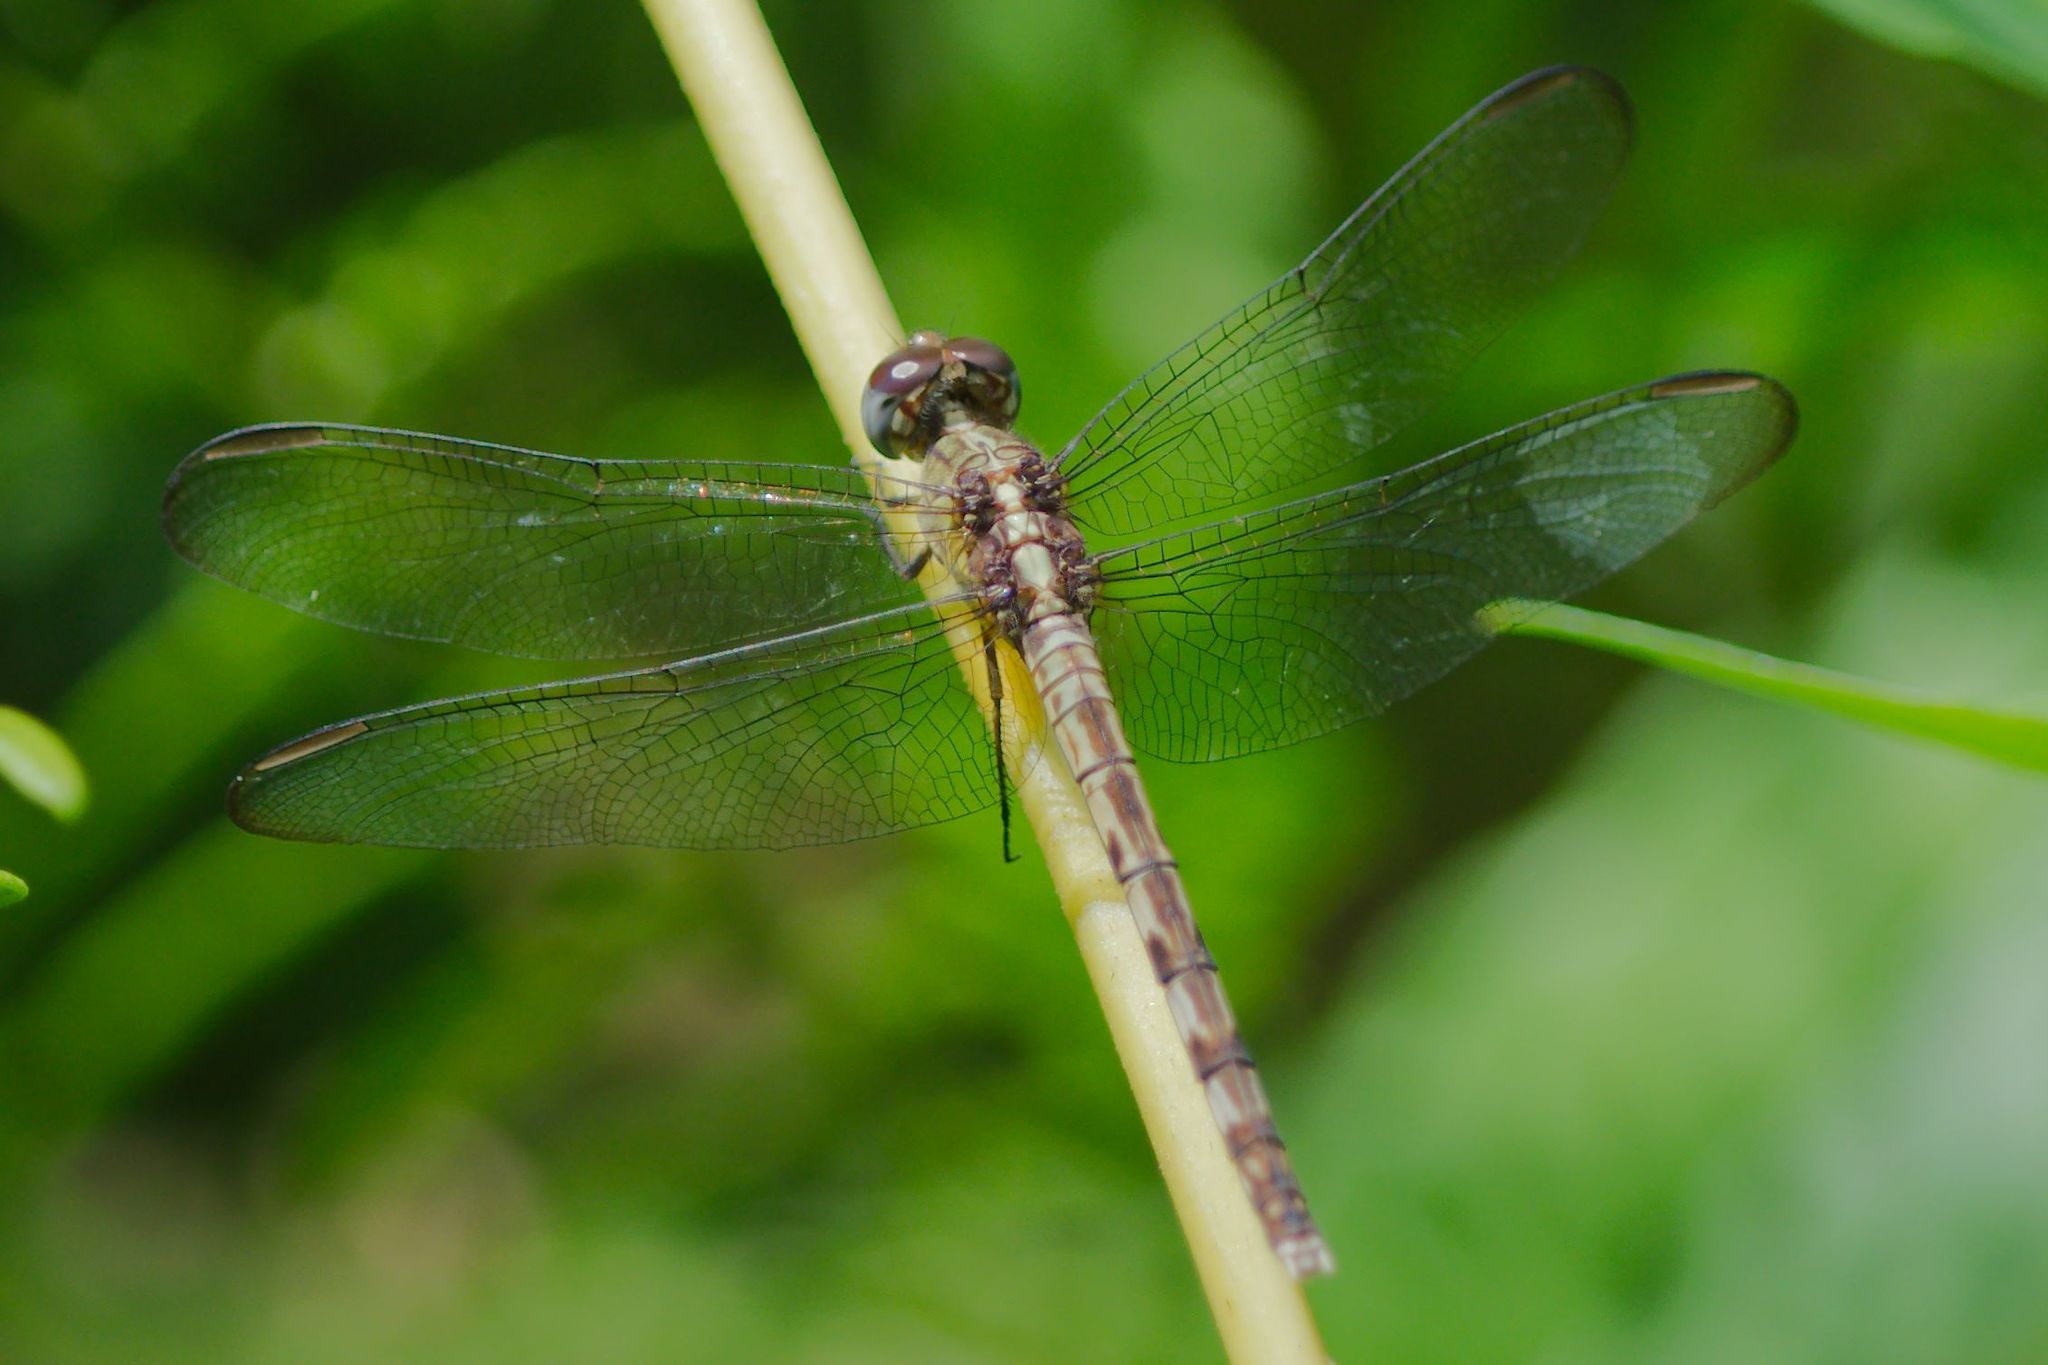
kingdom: Animalia
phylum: Arthropoda
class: Insecta
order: Odonata
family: Libellulidae
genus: Erythrodiplax
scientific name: Erythrodiplax umbrata
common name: Band-winged dragonlet
